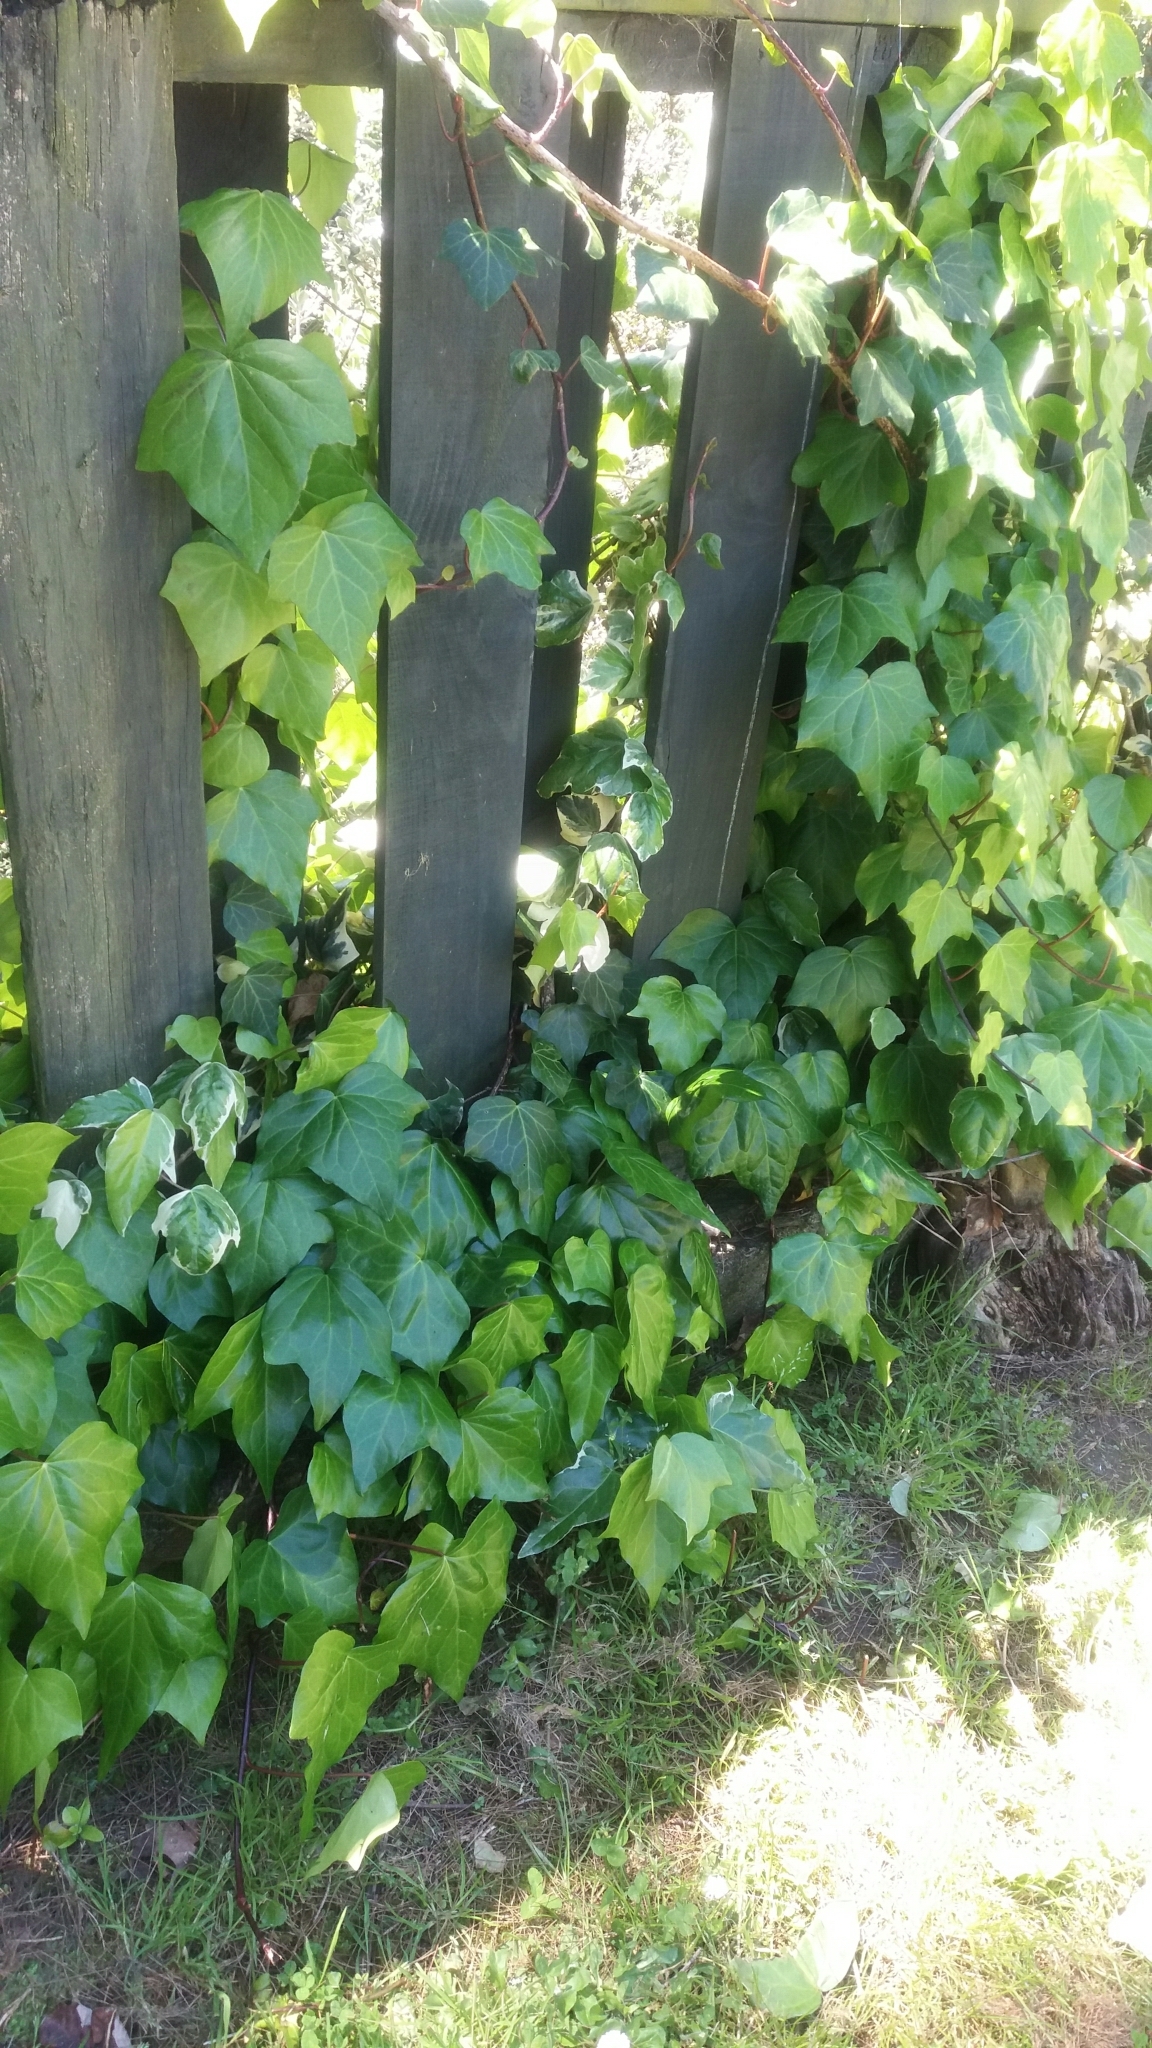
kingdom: Plantae
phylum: Tracheophyta
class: Magnoliopsida
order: Apiales
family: Araliaceae
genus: Hedera
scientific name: Hedera helix
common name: Ivy
